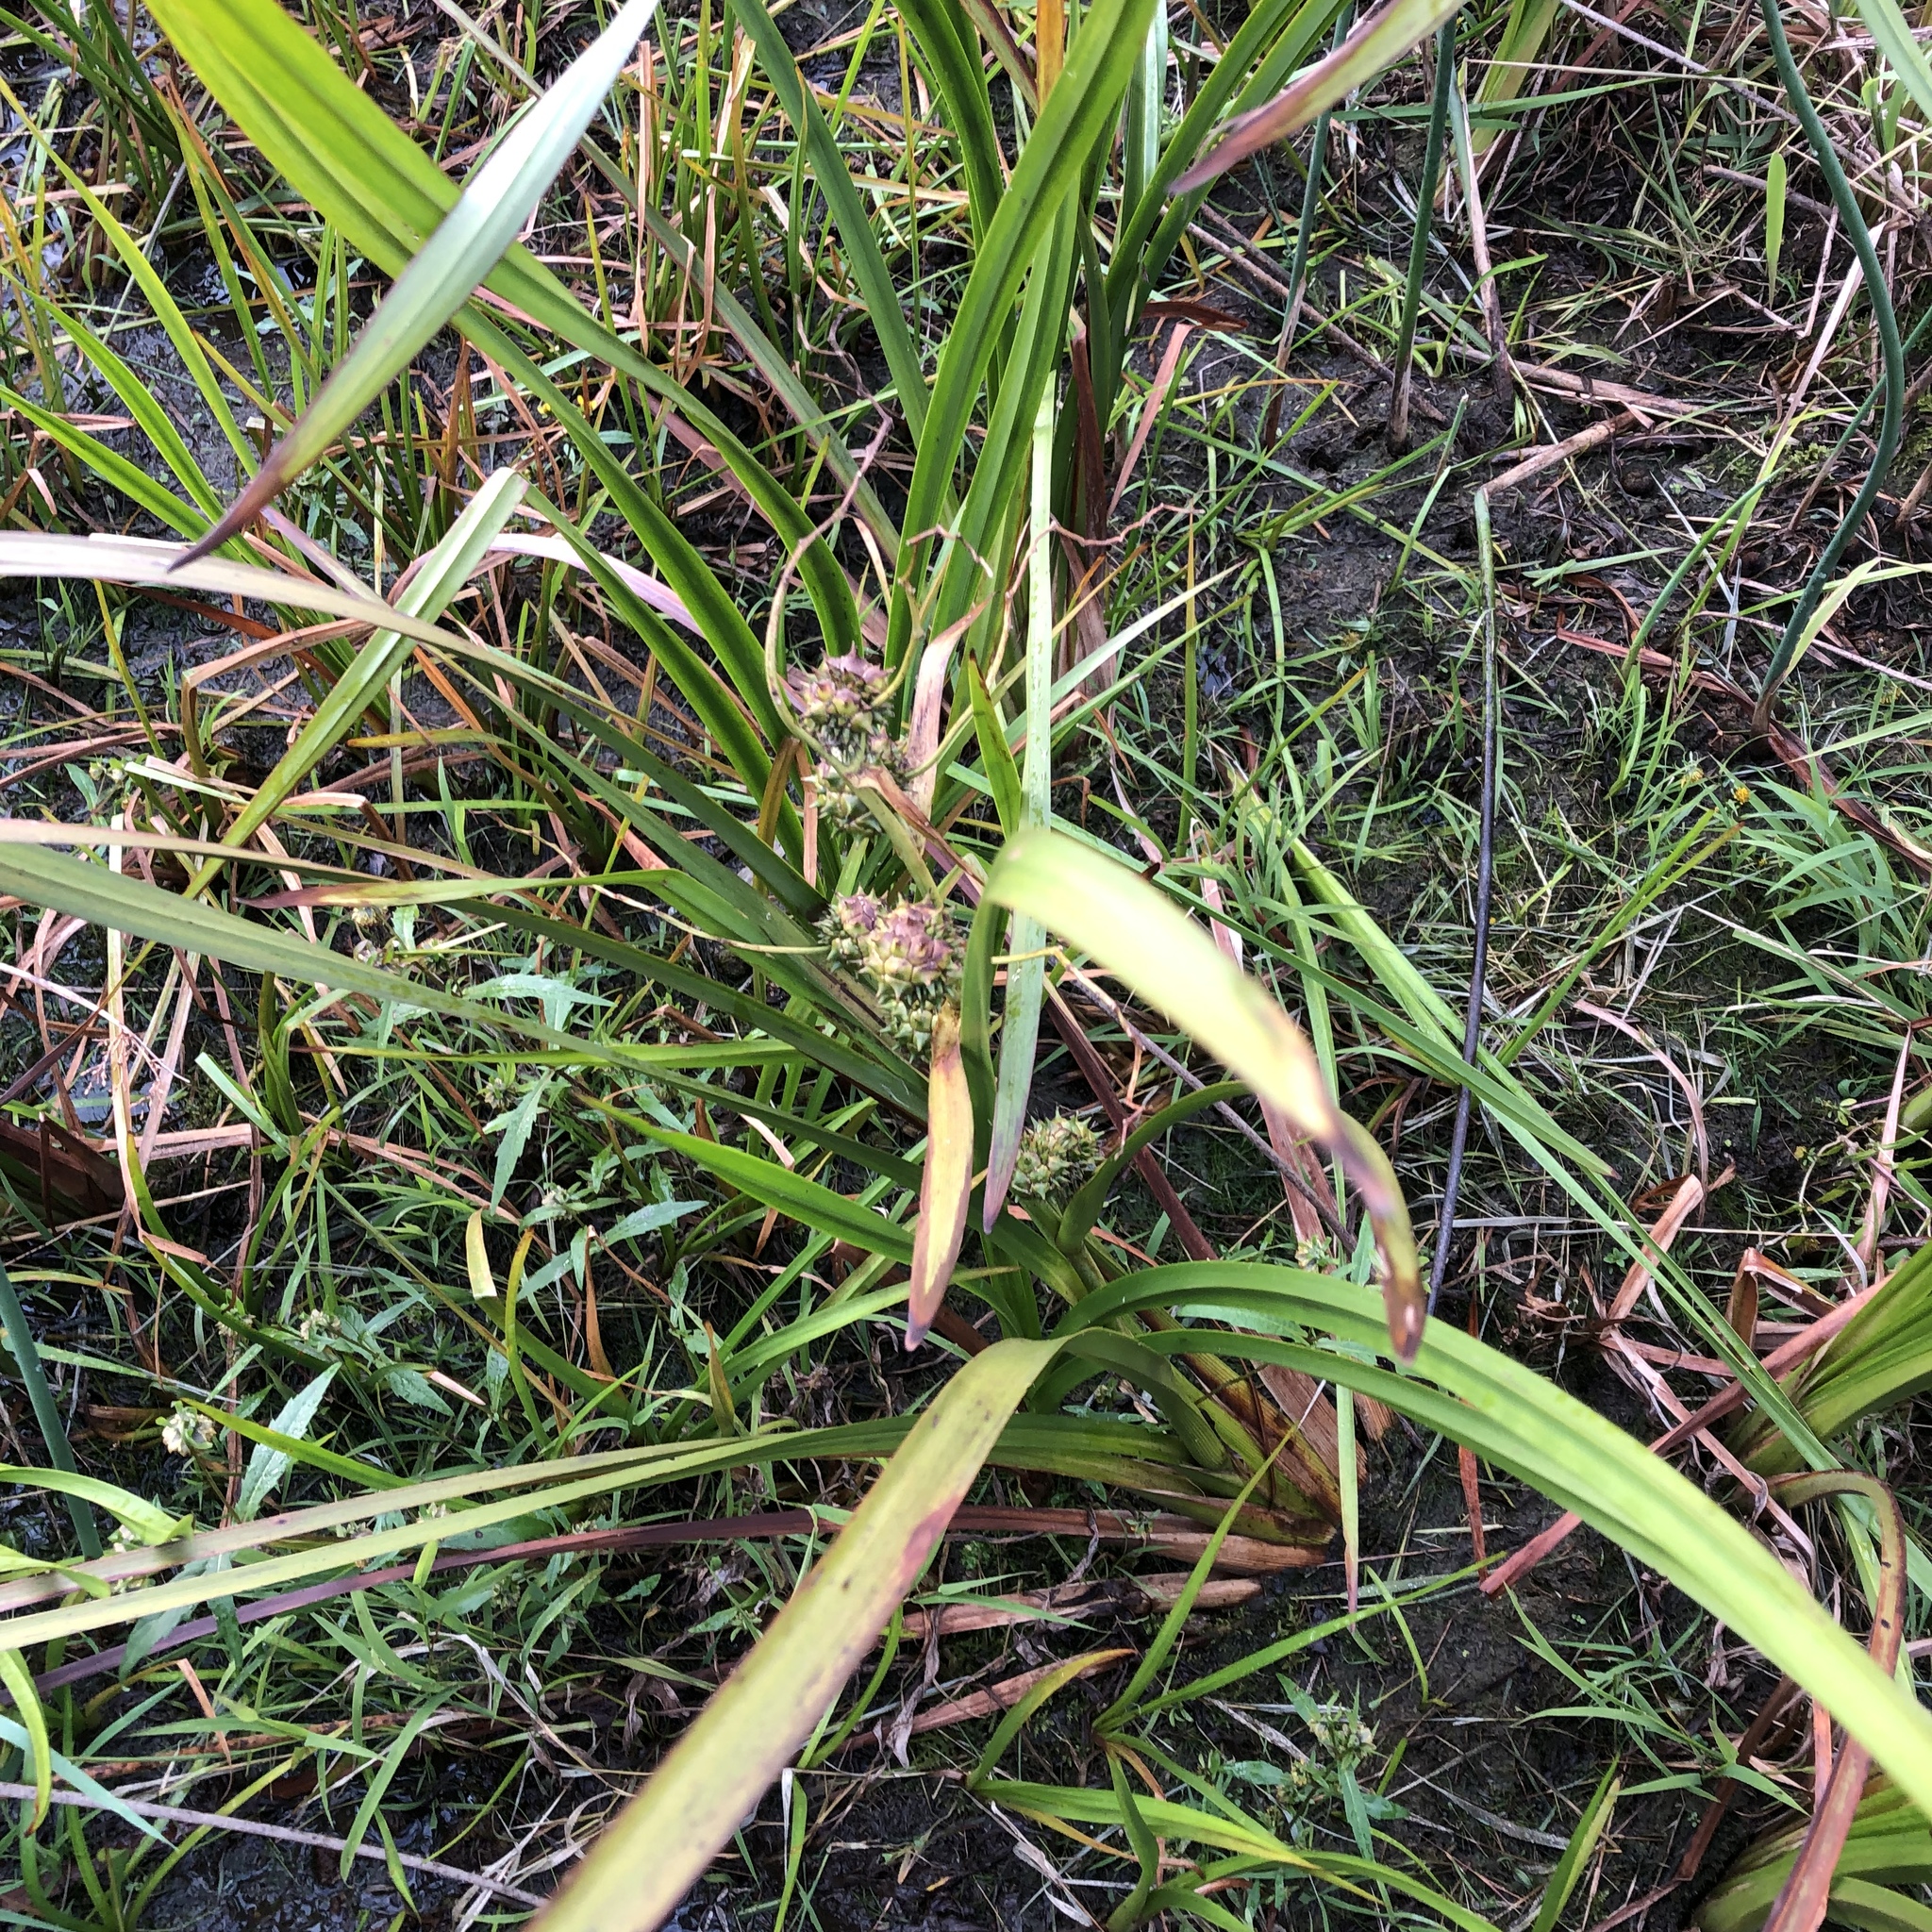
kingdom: Plantae
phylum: Tracheophyta
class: Liliopsida
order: Poales
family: Typhaceae
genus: Sparganium
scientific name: Sparganium eurycarpum
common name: Broad-fruited burreed
